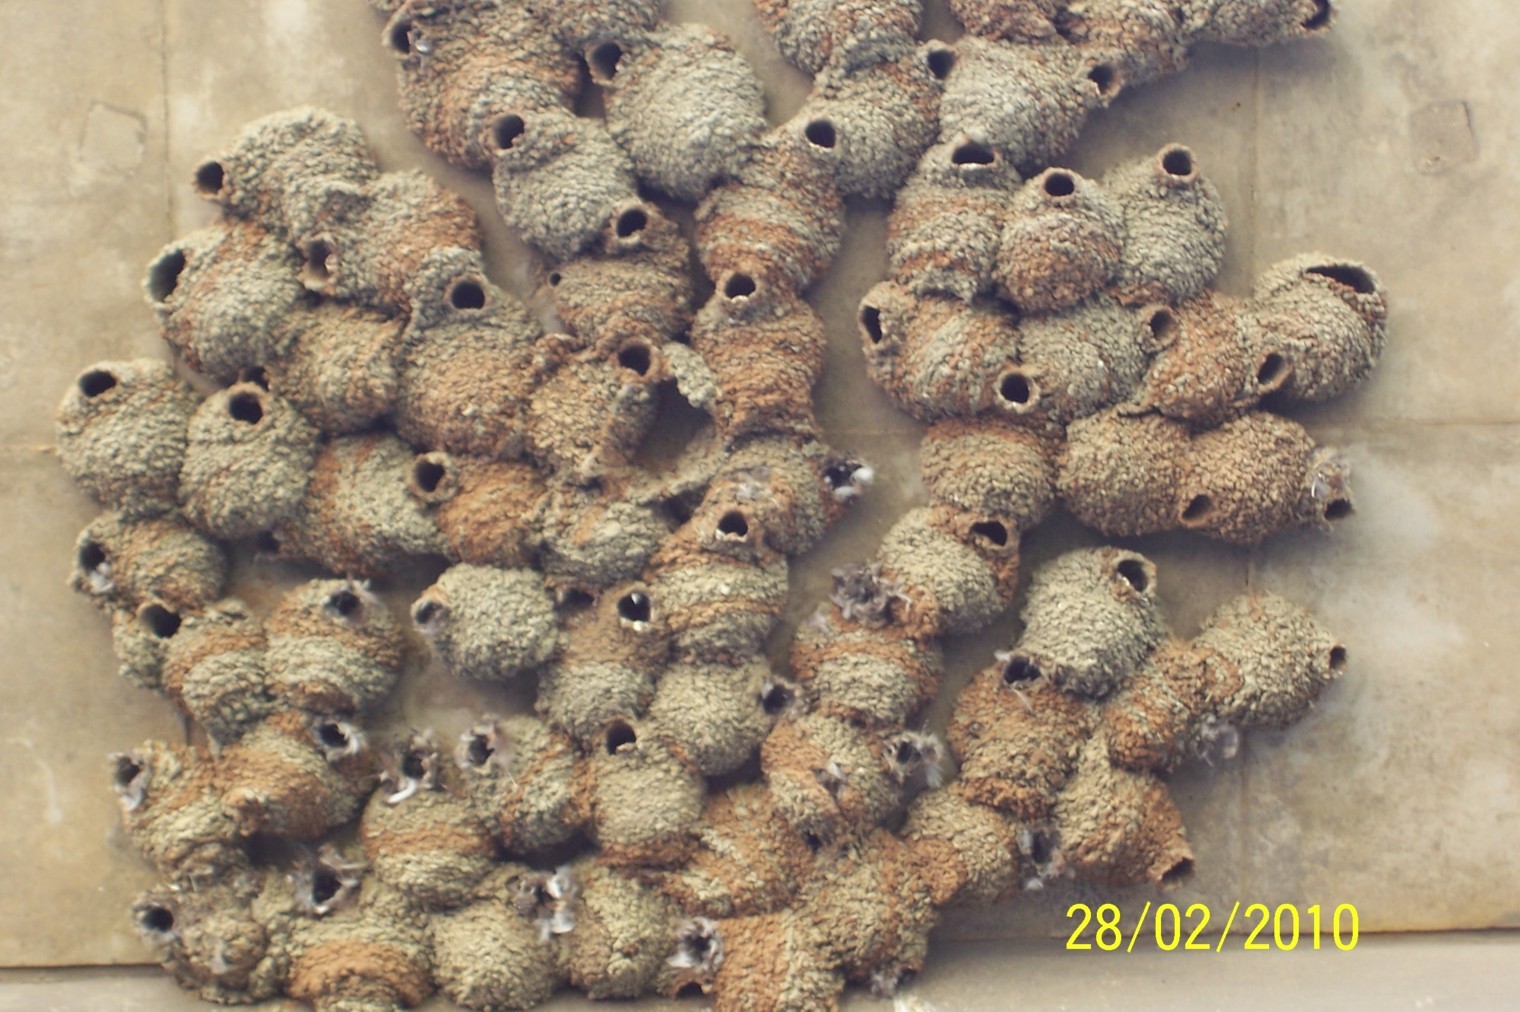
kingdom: Animalia
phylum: Chordata
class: Aves
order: Passeriformes
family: Hirundinidae
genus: Petrochelidon
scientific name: Petrochelidon spilodera
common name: South african swallow
